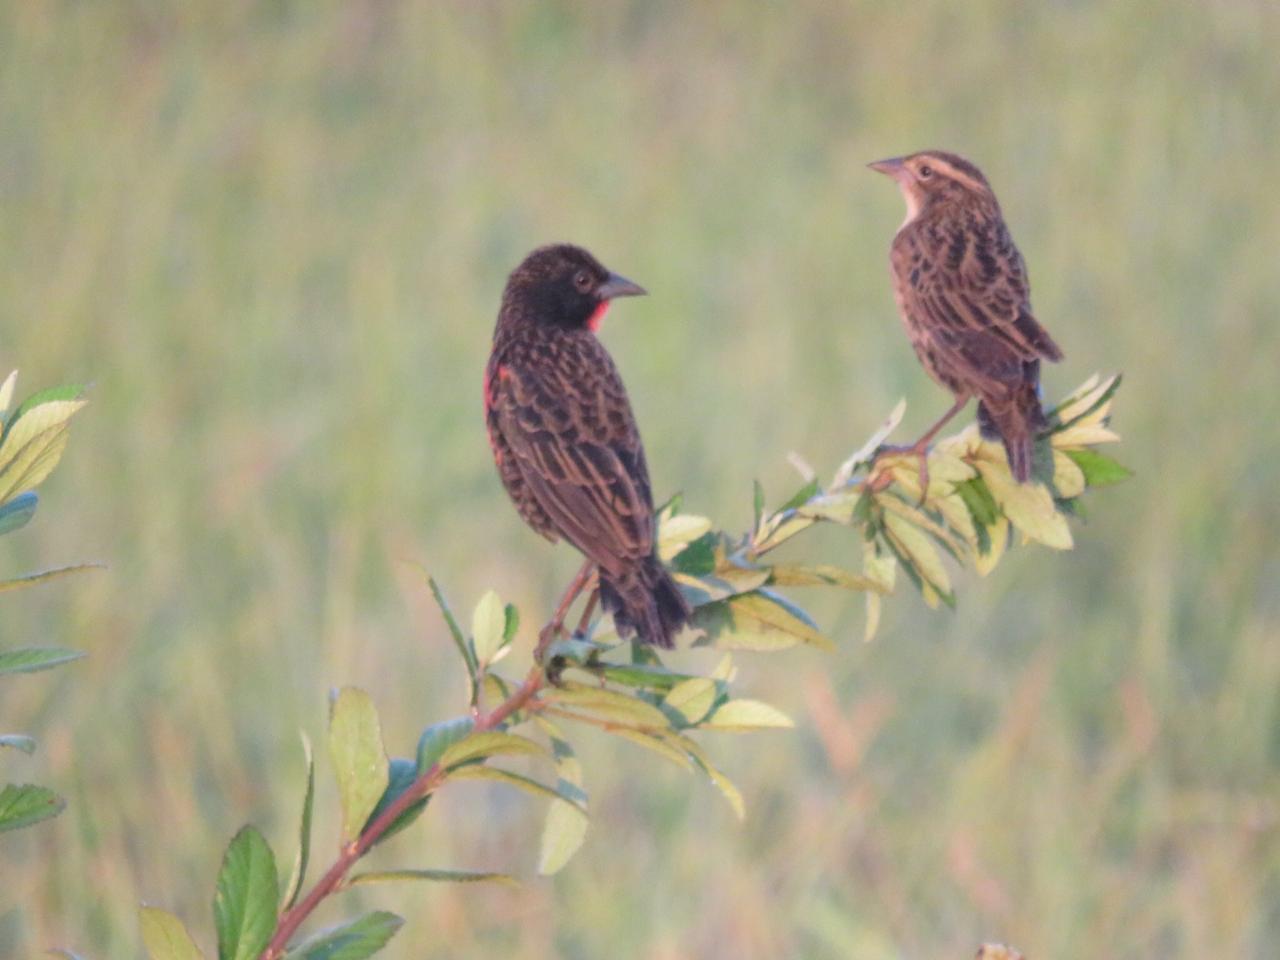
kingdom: Animalia
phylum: Chordata
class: Aves
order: Passeriformes
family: Icteridae
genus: Sturnella
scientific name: Sturnella militaris
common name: Red-breasted blackbird
